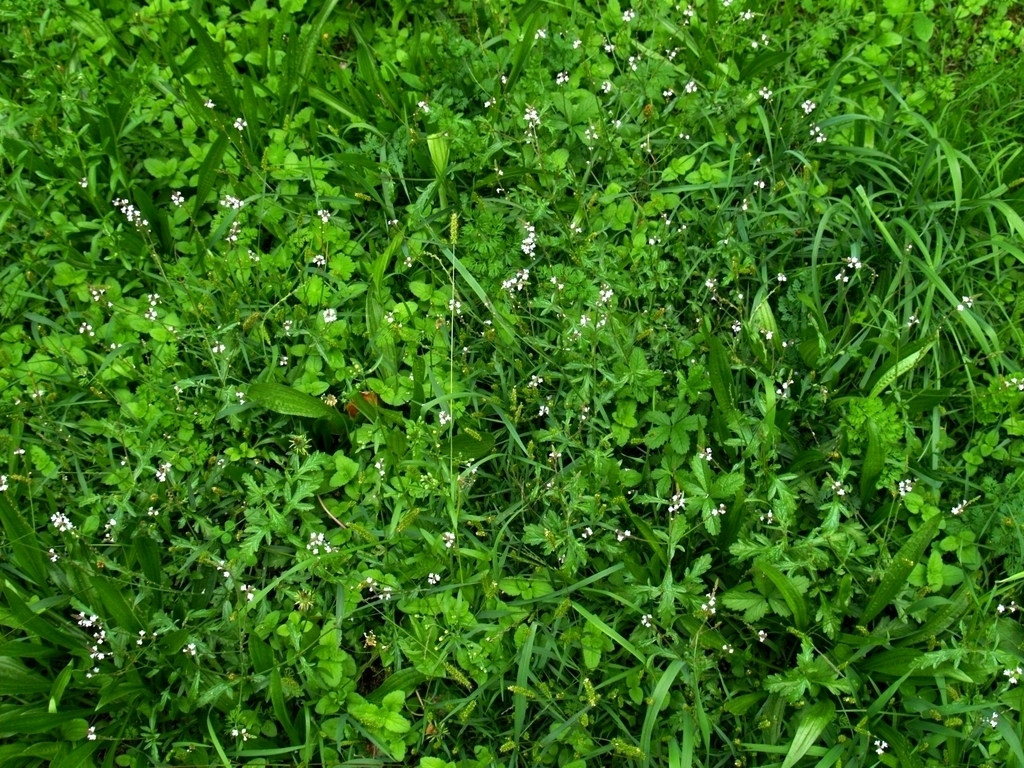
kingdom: Plantae
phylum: Tracheophyta
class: Magnoliopsida
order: Lamiales
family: Verbenaceae
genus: Verbena
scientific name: Verbena officinalis
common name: Vervain
